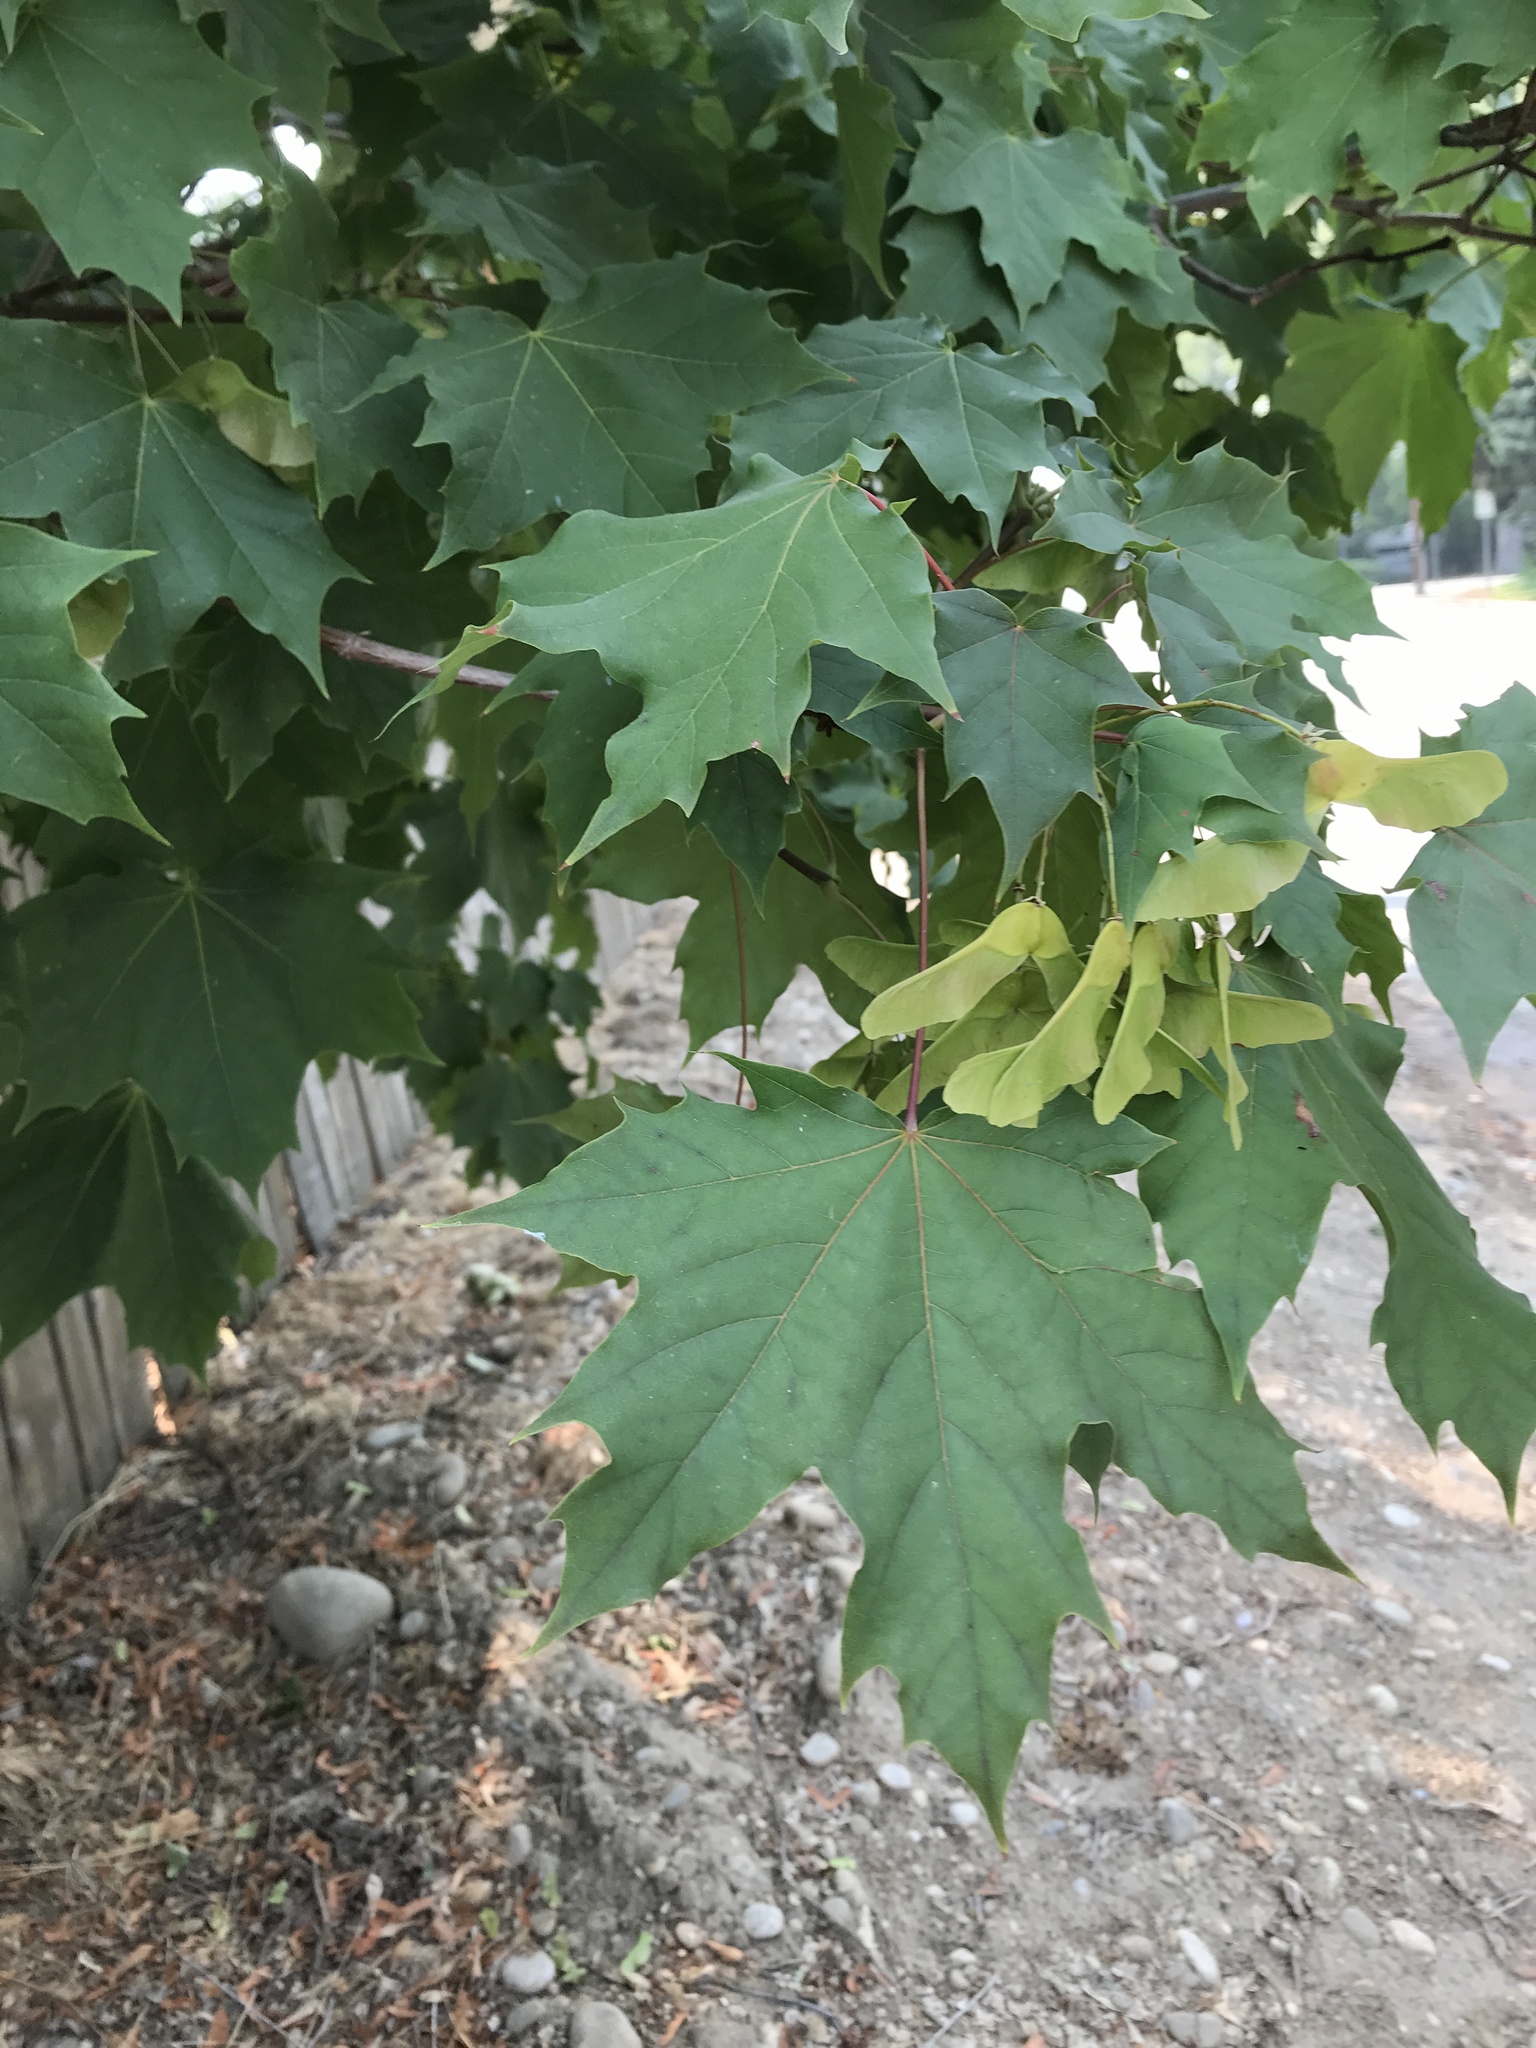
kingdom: Plantae
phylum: Tracheophyta
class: Magnoliopsida
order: Sapindales
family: Sapindaceae
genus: Acer
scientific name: Acer platanoides
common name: Norway maple
